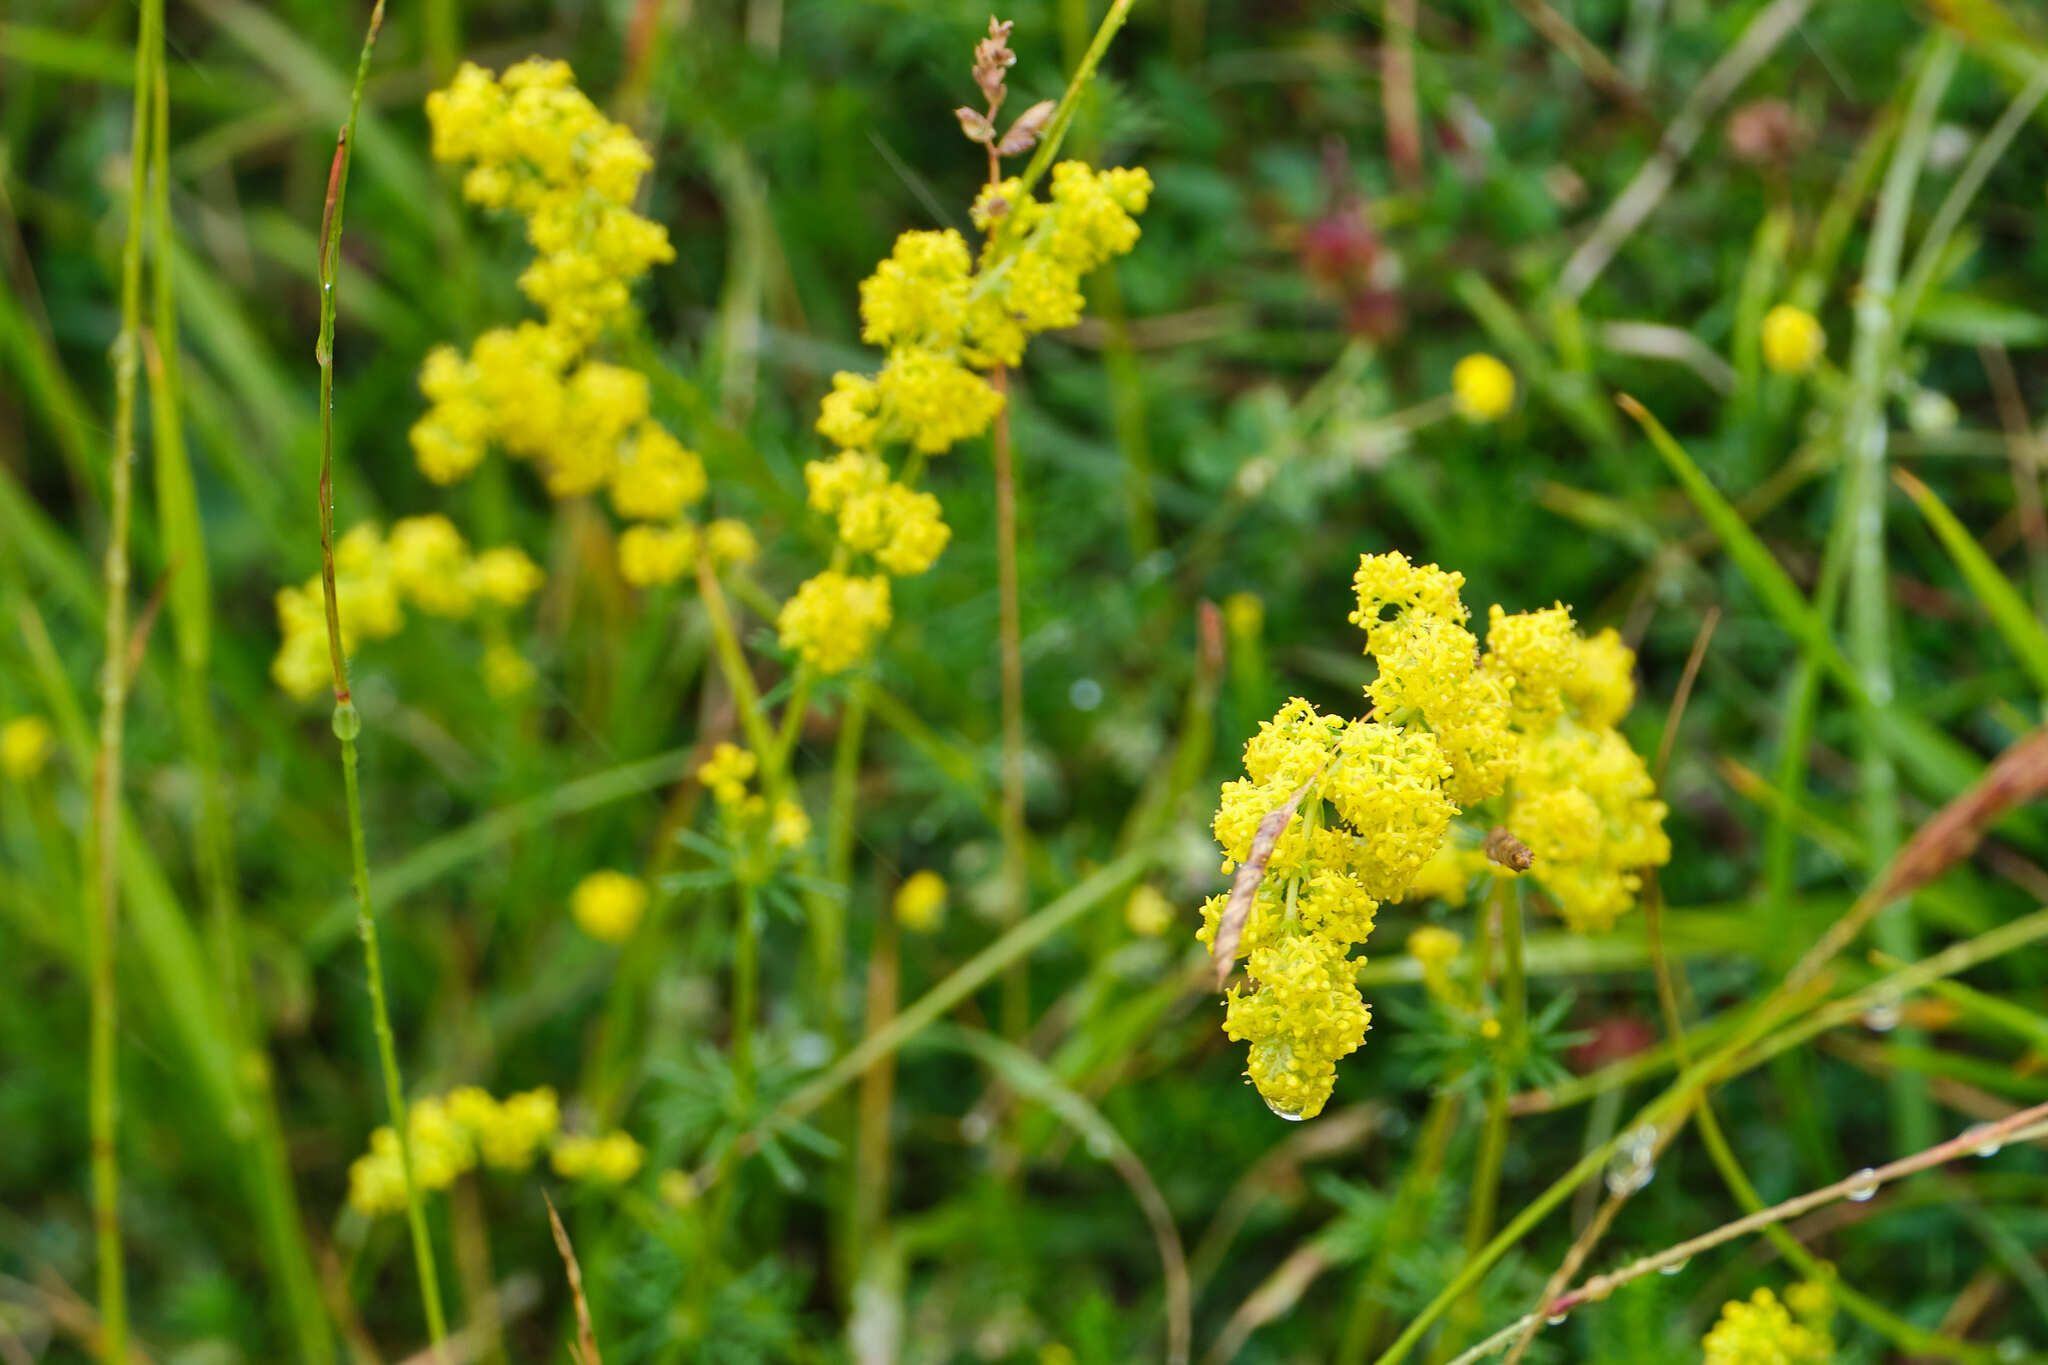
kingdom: Plantae
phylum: Tracheophyta
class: Magnoliopsida
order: Gentianales
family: Rubiaceae
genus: Galium
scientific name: Galium verum
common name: Lady's bedstraw
